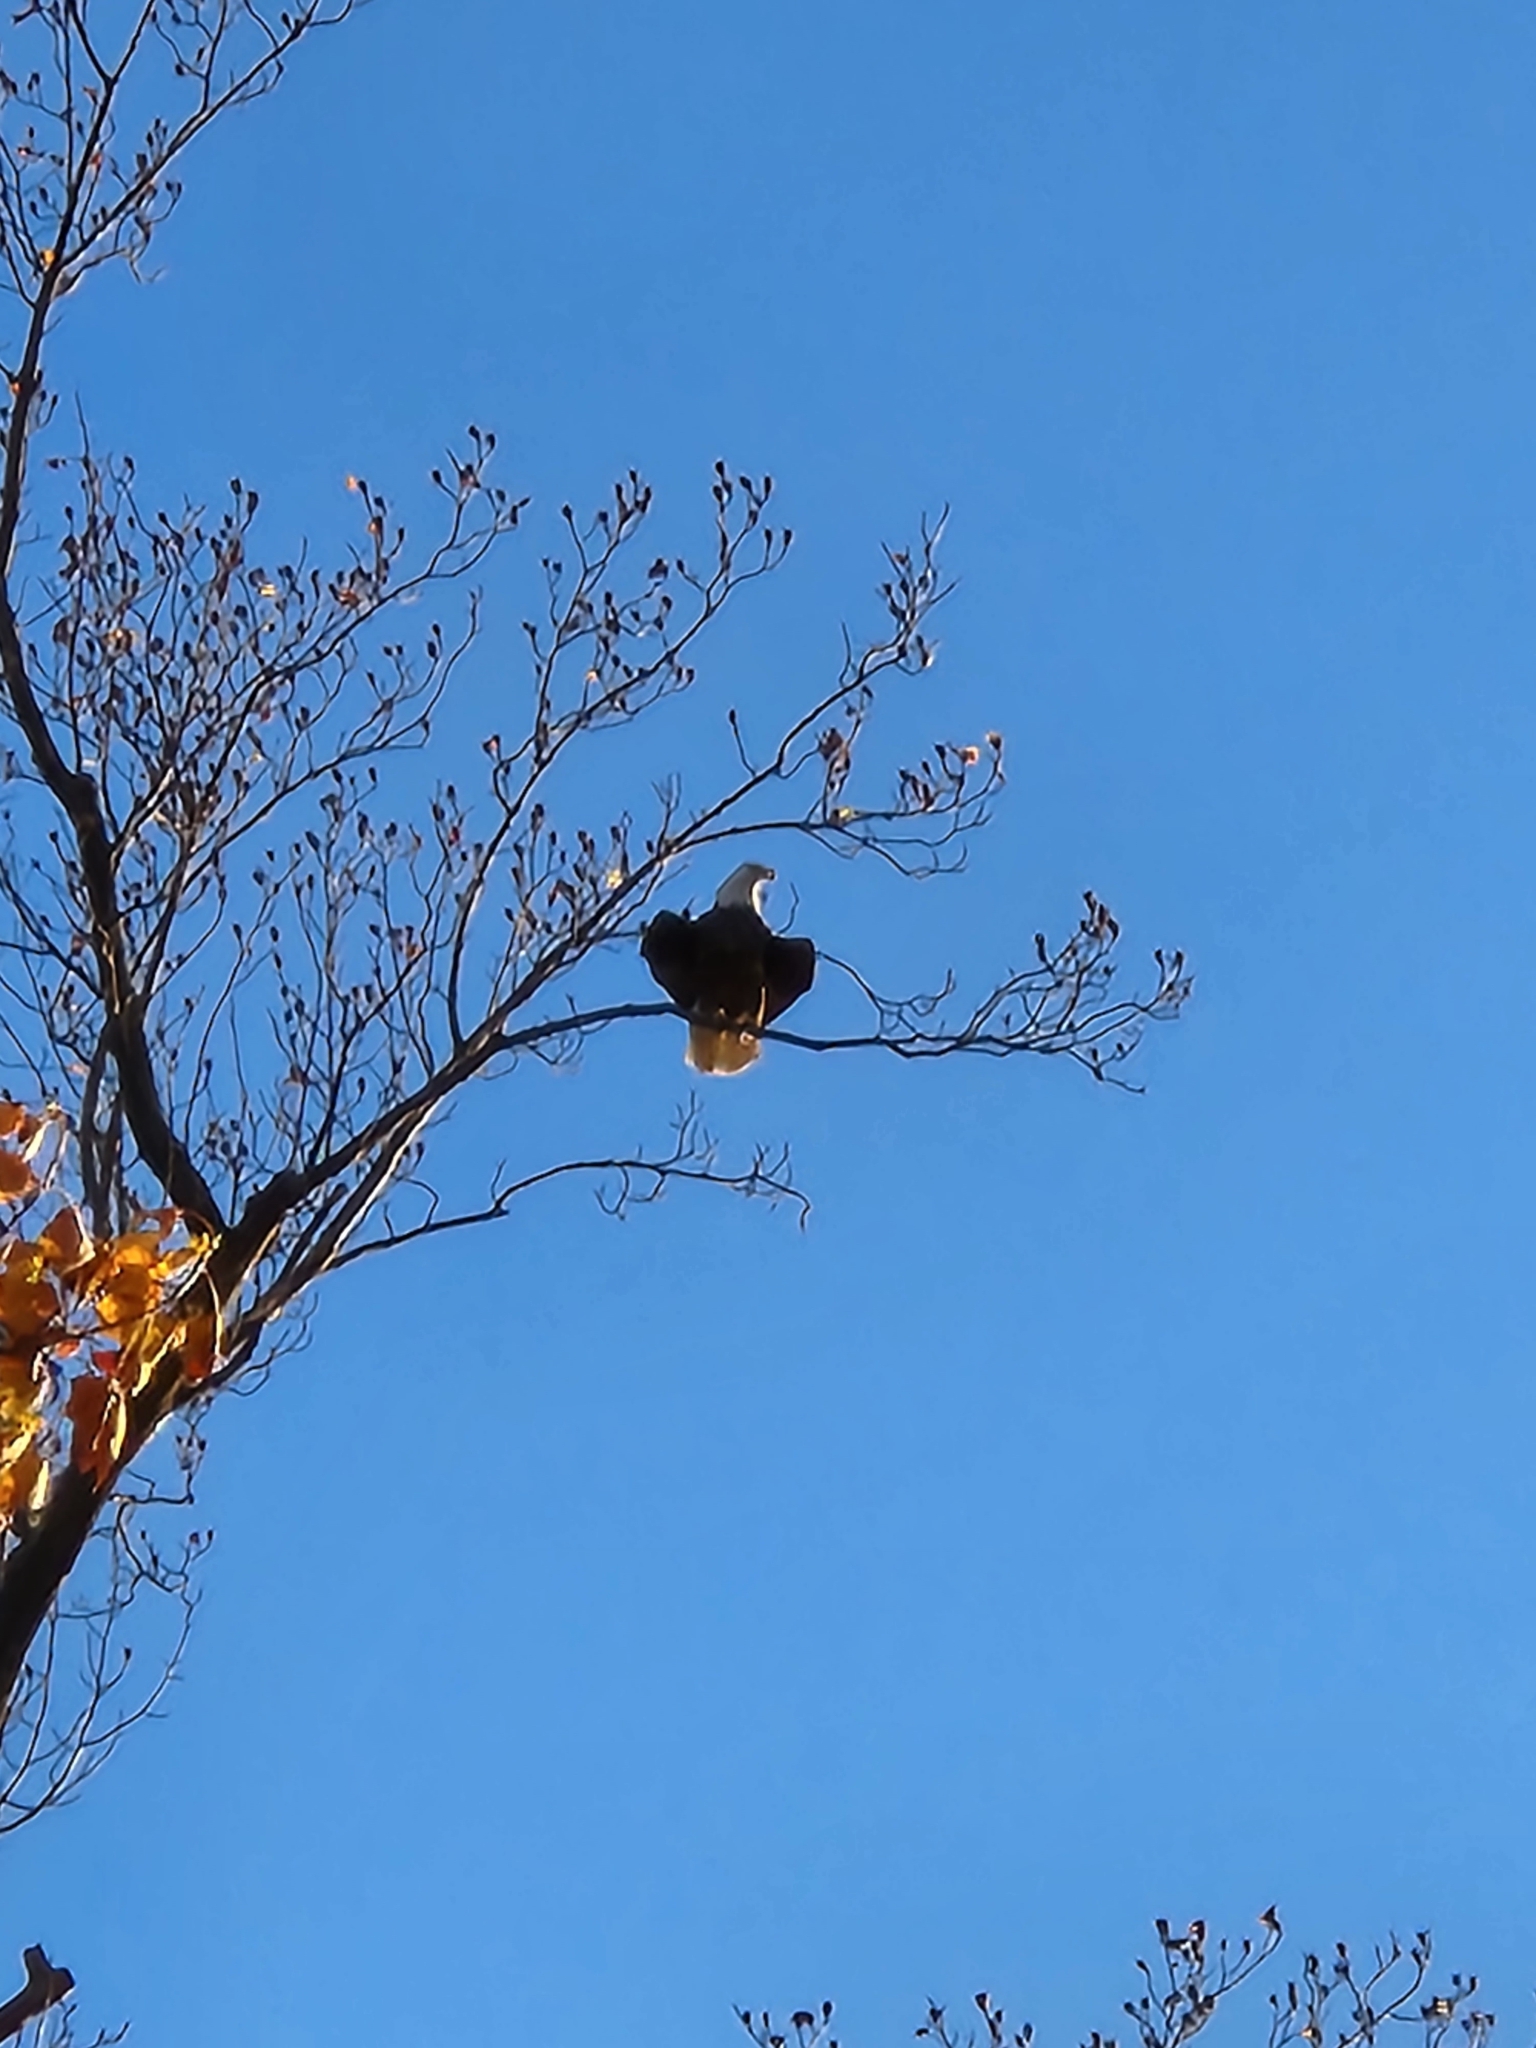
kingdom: Animalia
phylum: Chordata
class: Aves
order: Accipitriformes
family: Accipitridae
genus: Haliaeetus
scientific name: Haliaeetus leucocephalus
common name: Bald eagle
